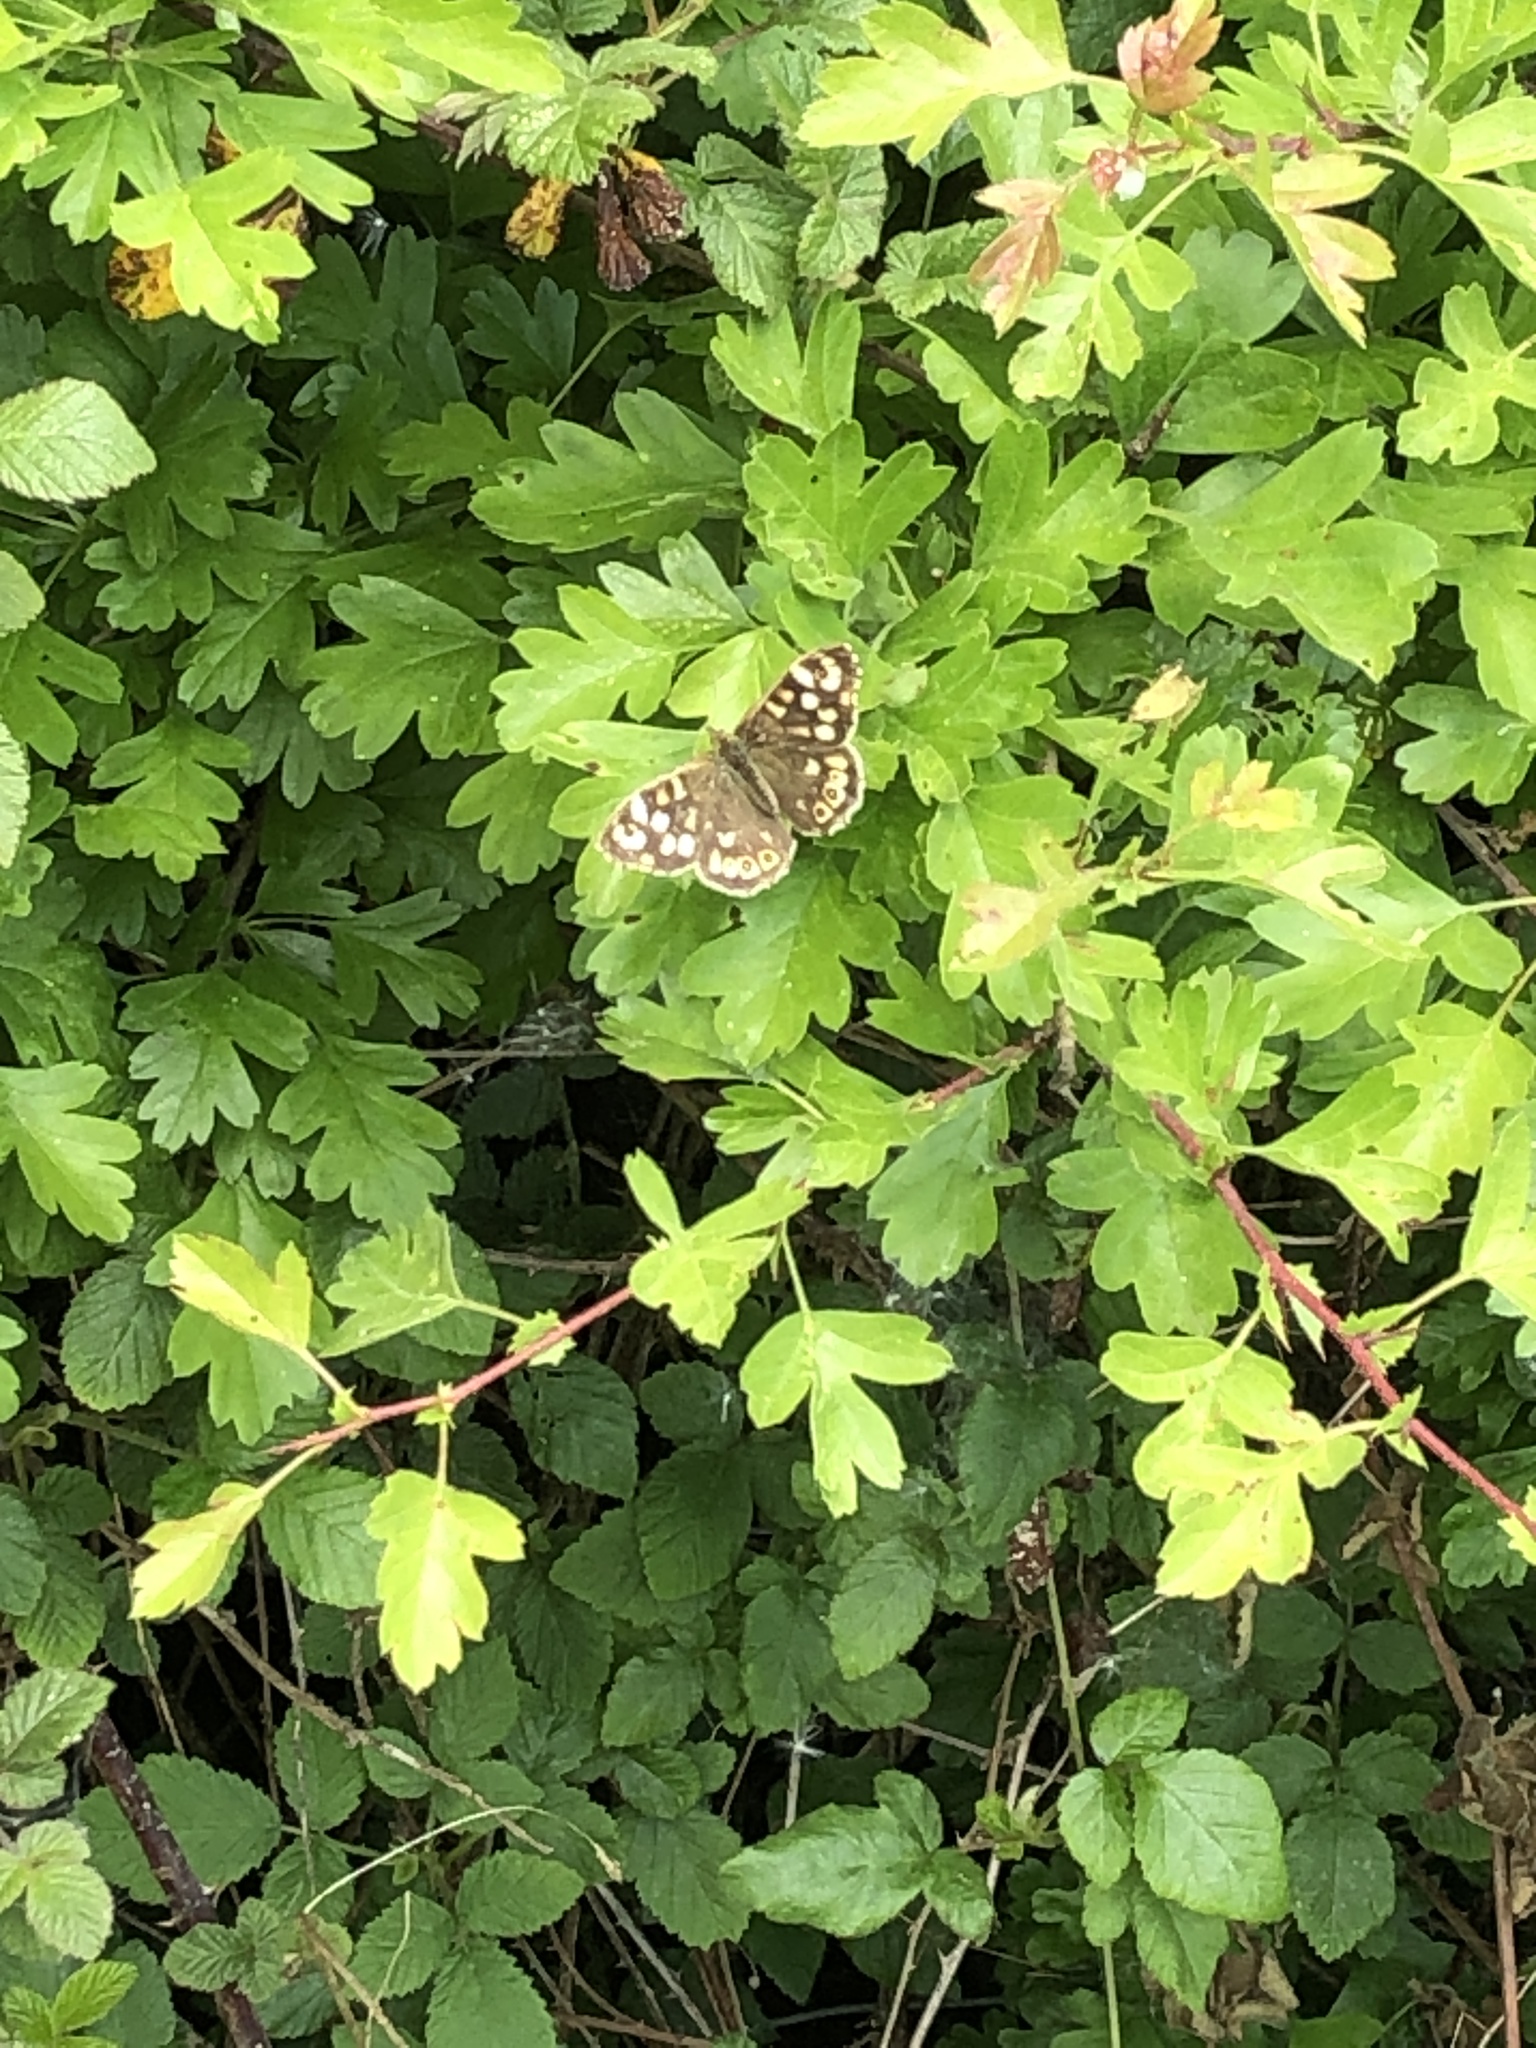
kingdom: Animalia
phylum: Arthropoda
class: Insecta
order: Lepidoptera
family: Nymphalidae
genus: Pararge
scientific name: Pararge aegeria
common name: Speckled wood
